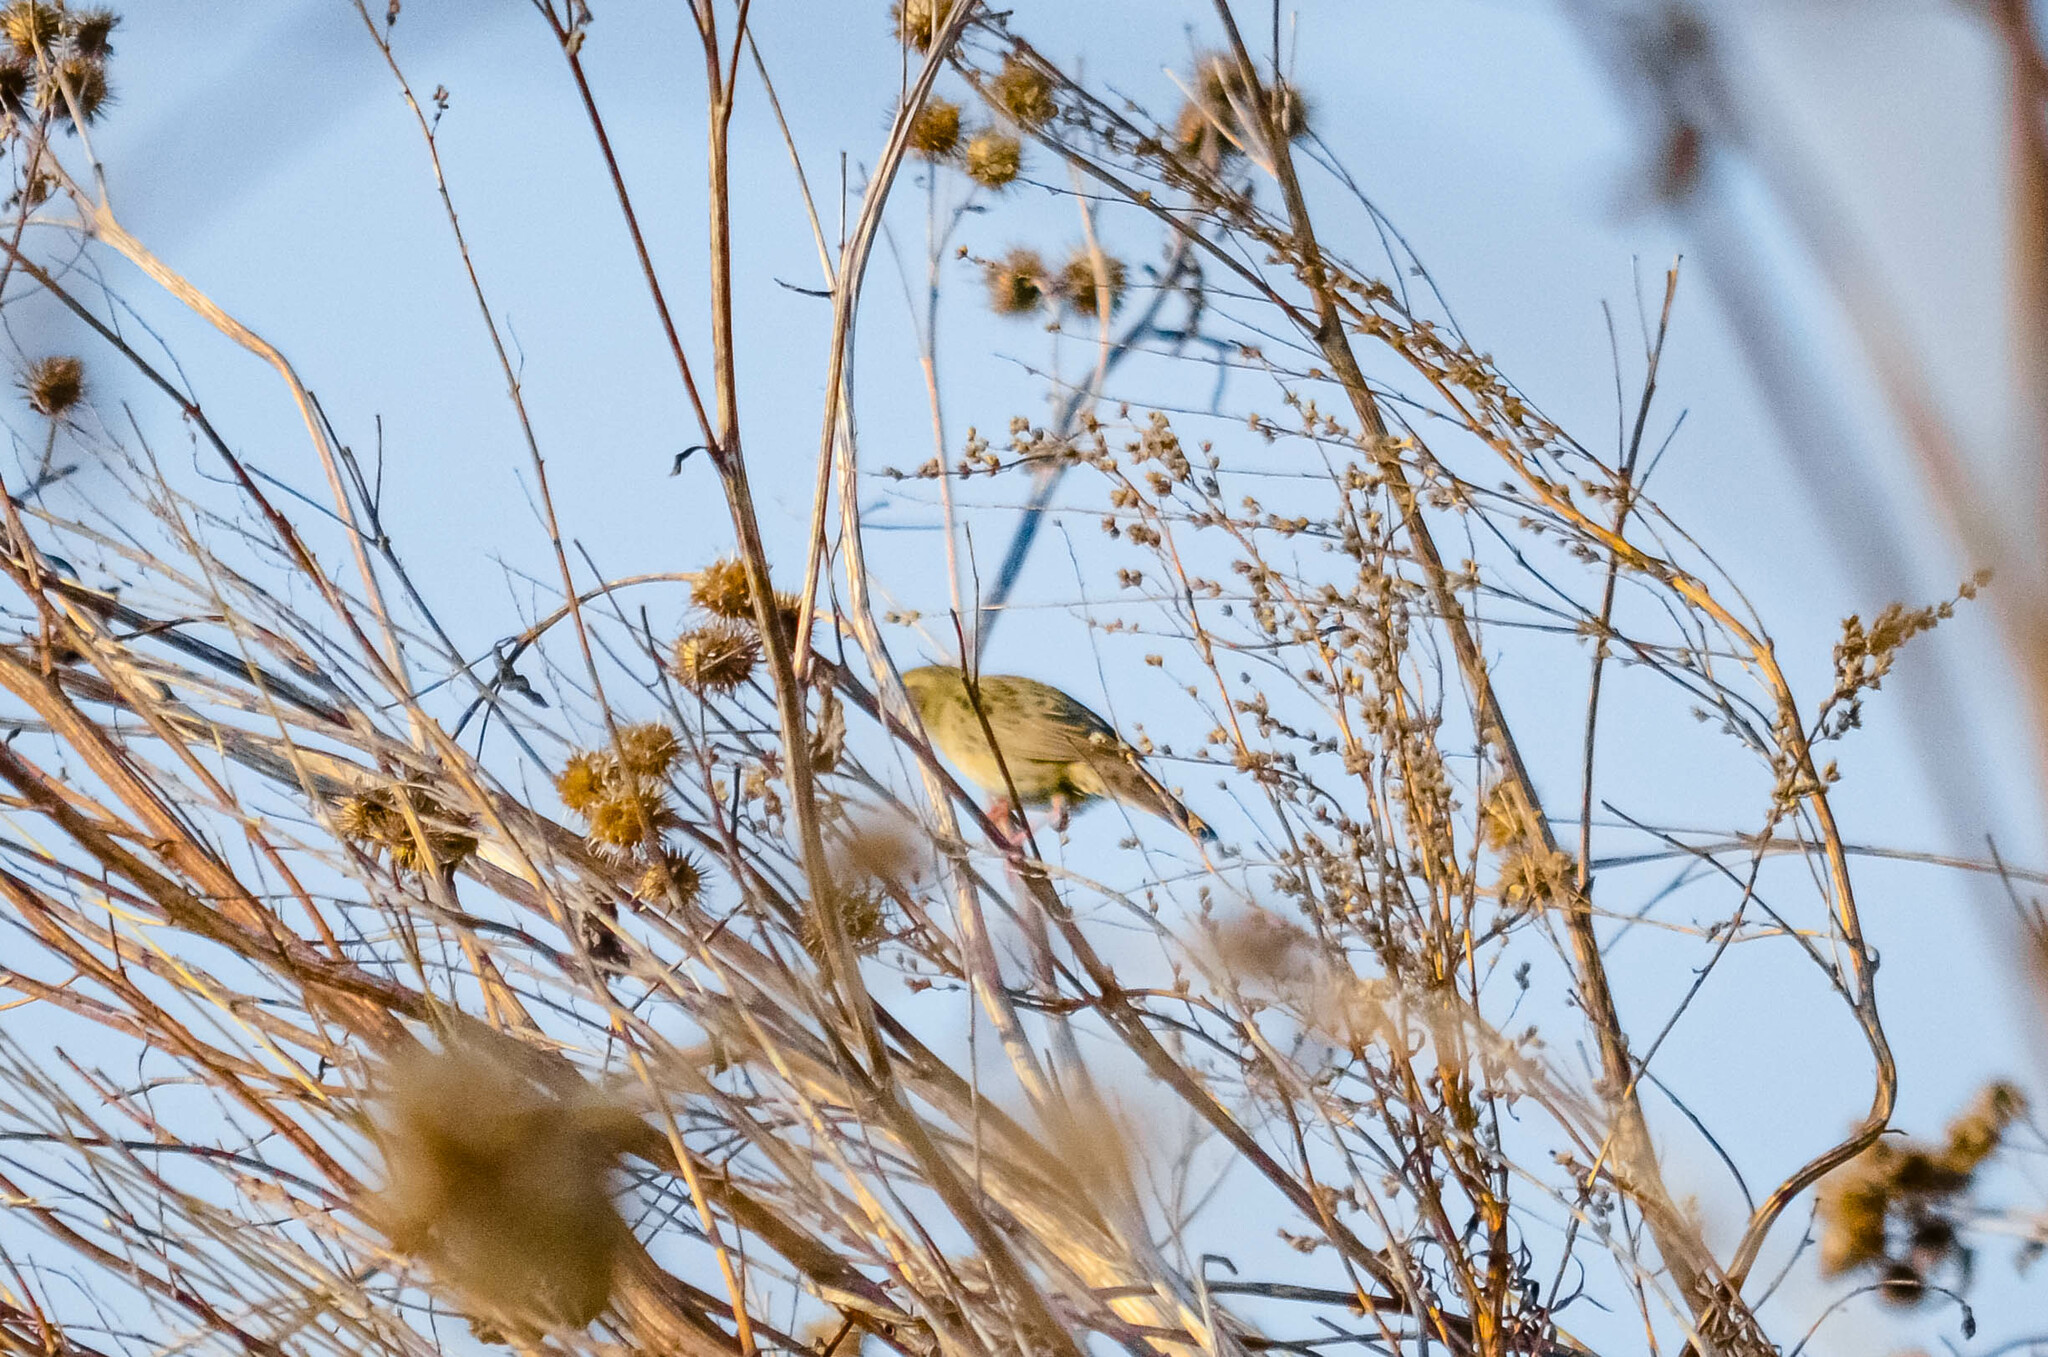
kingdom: Animalia
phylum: Chordata
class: Aves
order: Passeriformes
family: Locustellidae
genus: Locustella
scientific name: Locustella naevia
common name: Common grasshopper warbler
